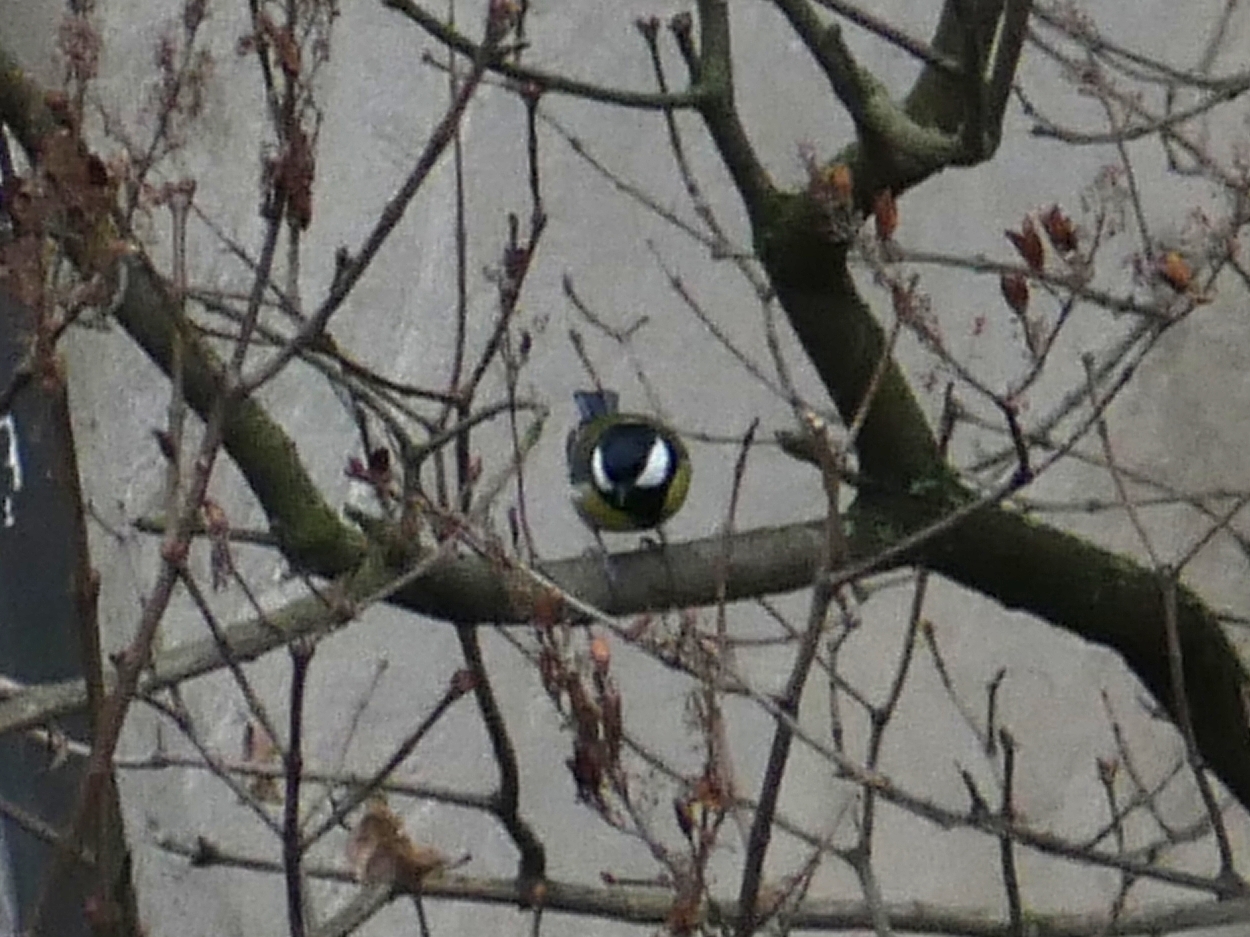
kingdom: Animalia
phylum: Chordata
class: Aves
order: Passeriformes
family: Paridae
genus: Parus
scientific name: Parus major
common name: Great tit
